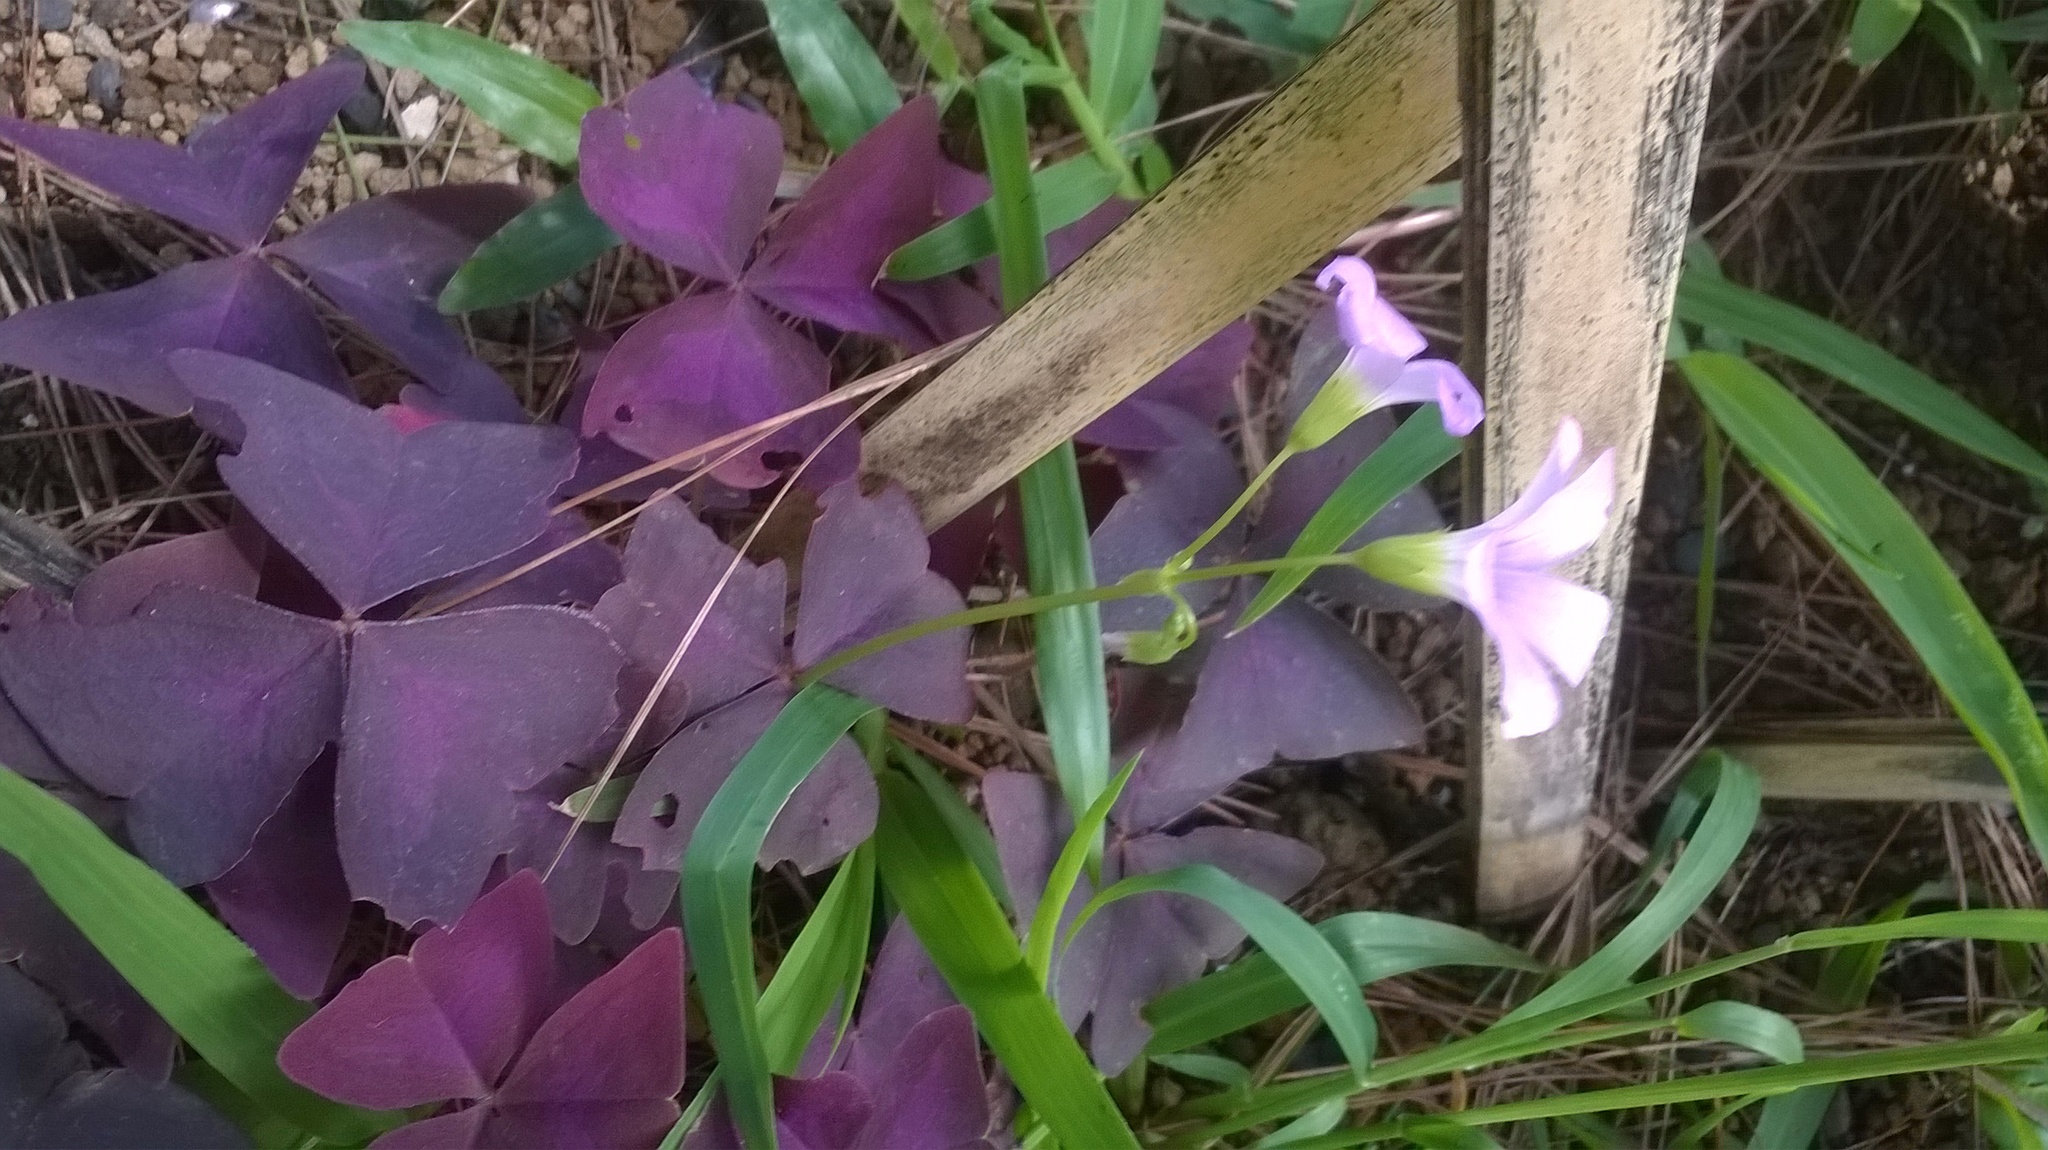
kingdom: Plantae
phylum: Tracheophyta
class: Magnoliopsida
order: Oxalidales
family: Oxalidaceae
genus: Oxalis
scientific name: Oxalis triangularis
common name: Wood sorrel
